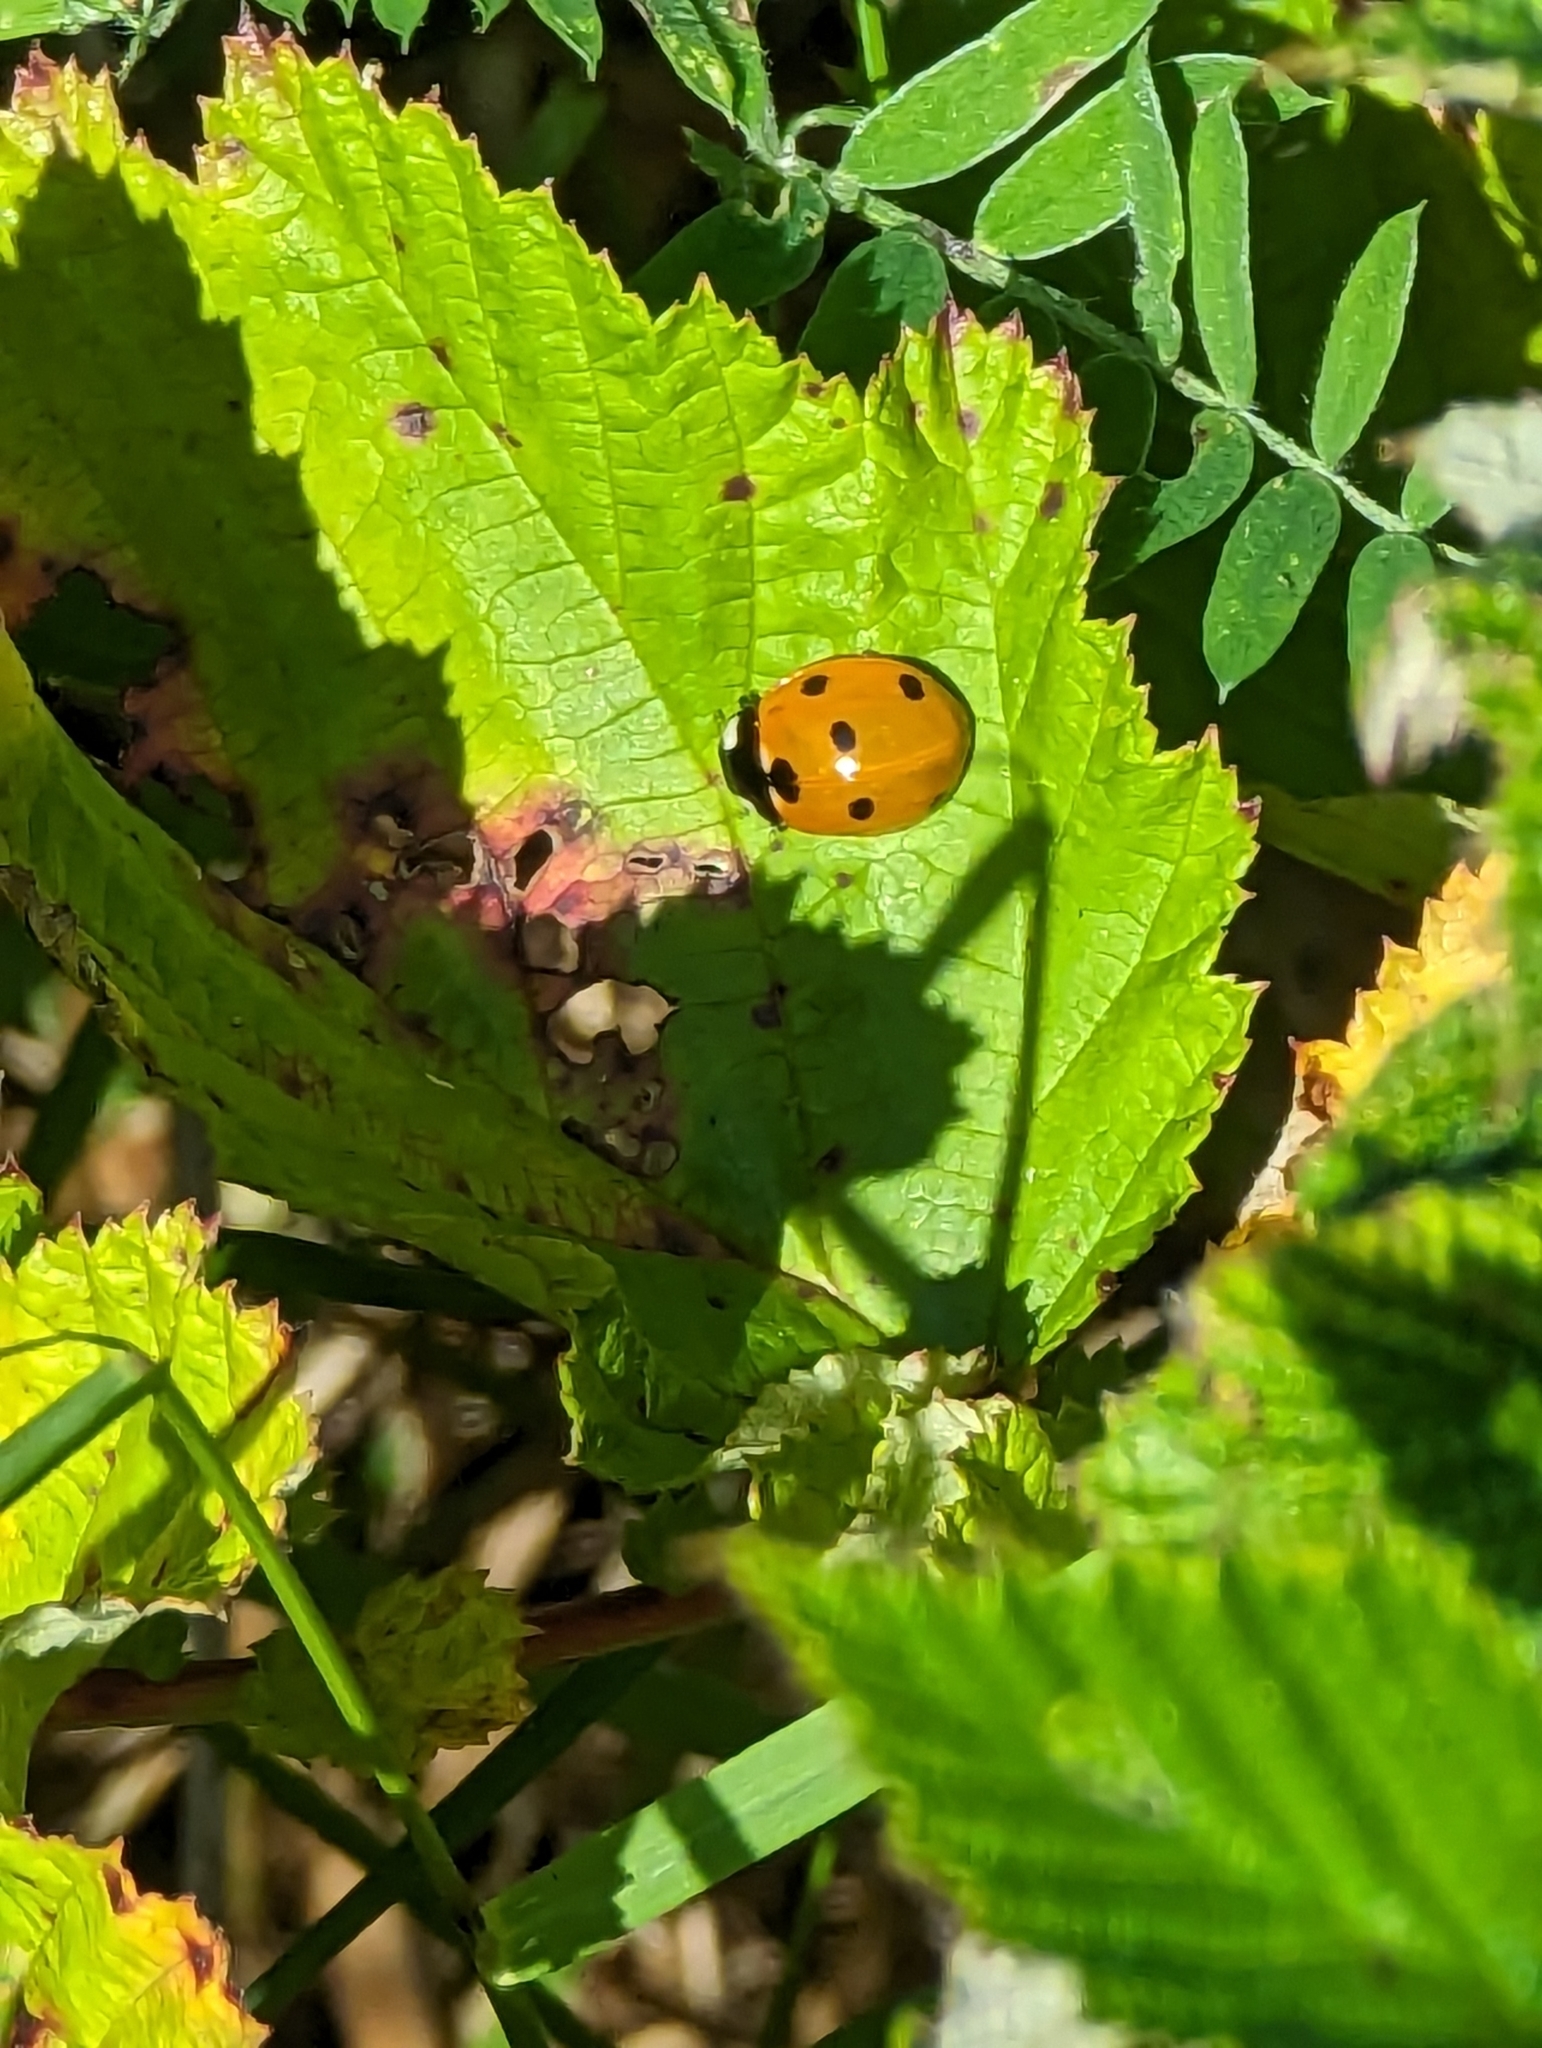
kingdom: Animalia
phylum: Arthropoda
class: Insecta
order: Coleoptera
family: Coccinellidae
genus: Coccinella
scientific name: Coccinella septempunctata
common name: Sevenspotted lady beetle
